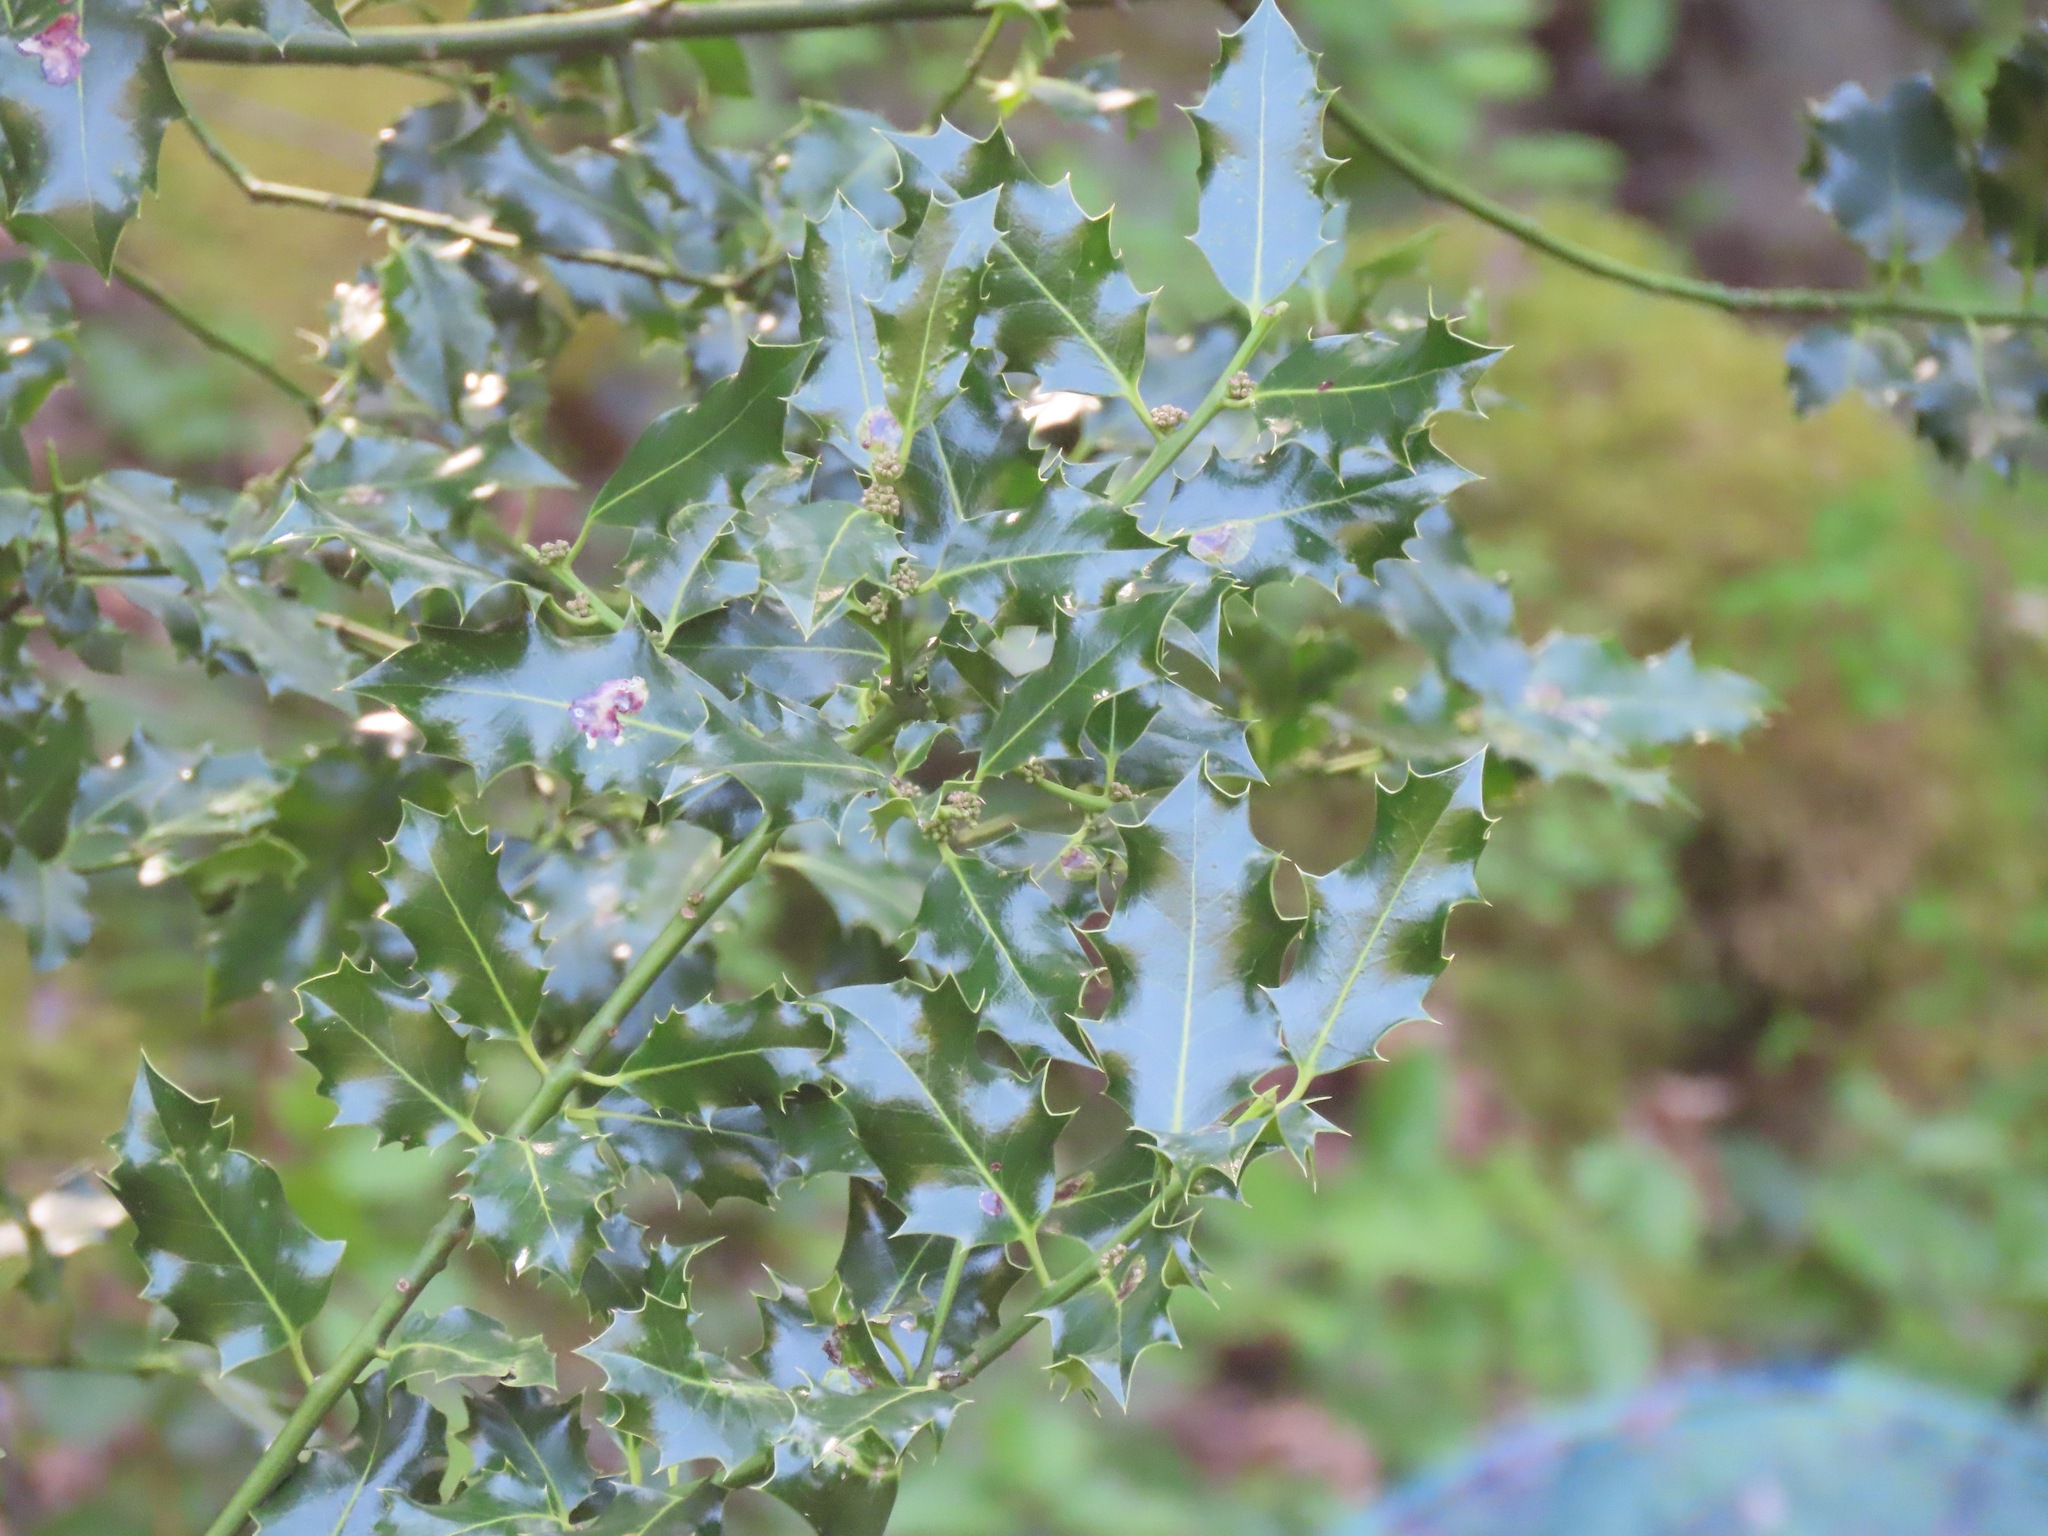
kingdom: Plantae
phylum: Tracheophyta
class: Magnoliopsida
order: Aquifoliales
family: Aquifoliaceae
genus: Ilex
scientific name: Ilex aquifolium
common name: English holly
